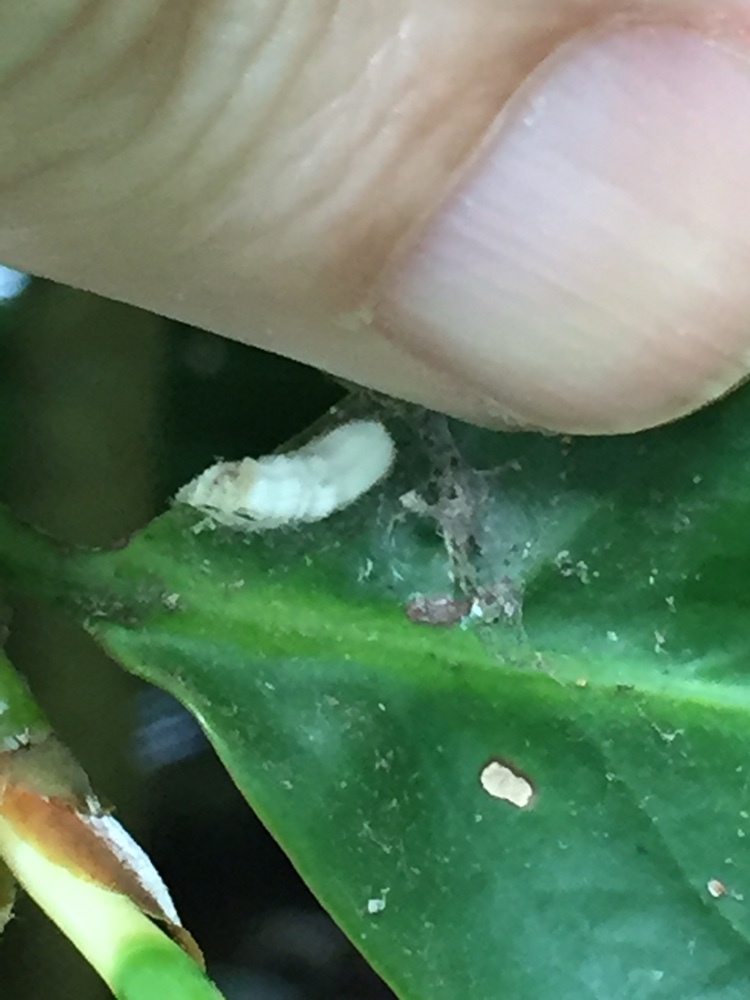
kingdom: Animalia
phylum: Arthropoda
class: Insecta
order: Hemiptera
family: Coccidae
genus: Pulvinaria
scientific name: Pulvinaria floccifera
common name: Cottony camellia scale
